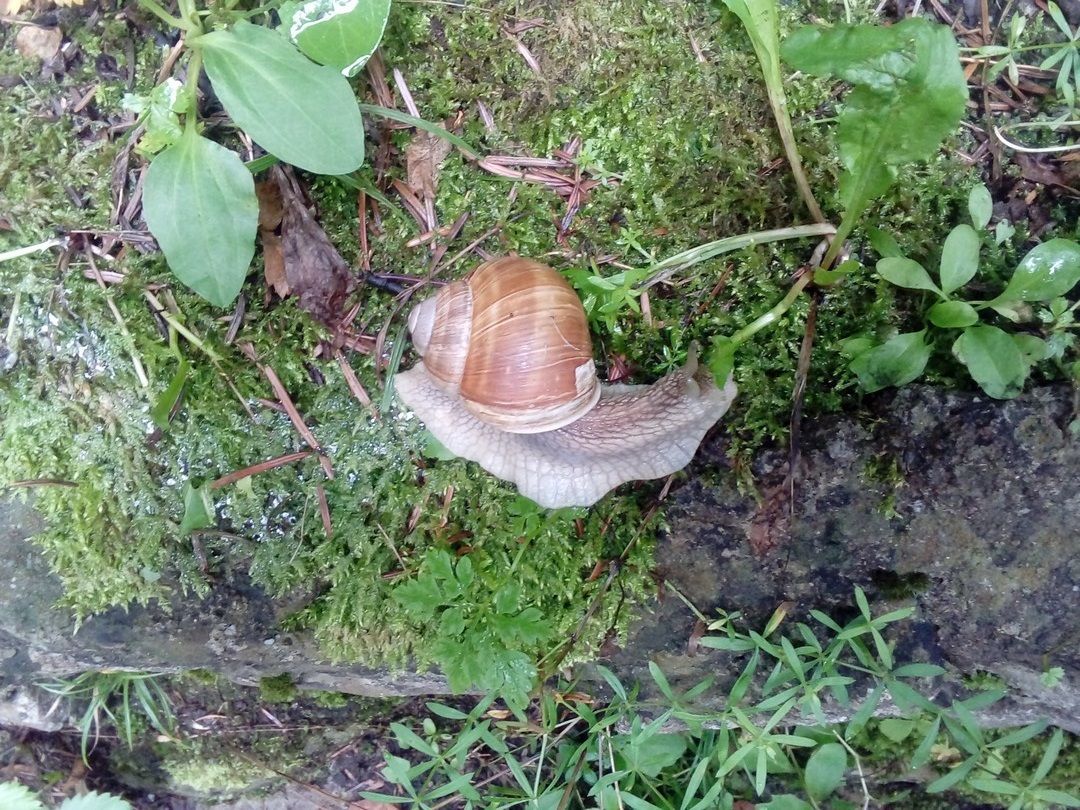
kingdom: Animalia
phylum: Mollusca
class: Gastropoda
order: Stylommatophora
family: Helicidae
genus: Helix
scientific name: Helix pomatia
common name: Roman snail
